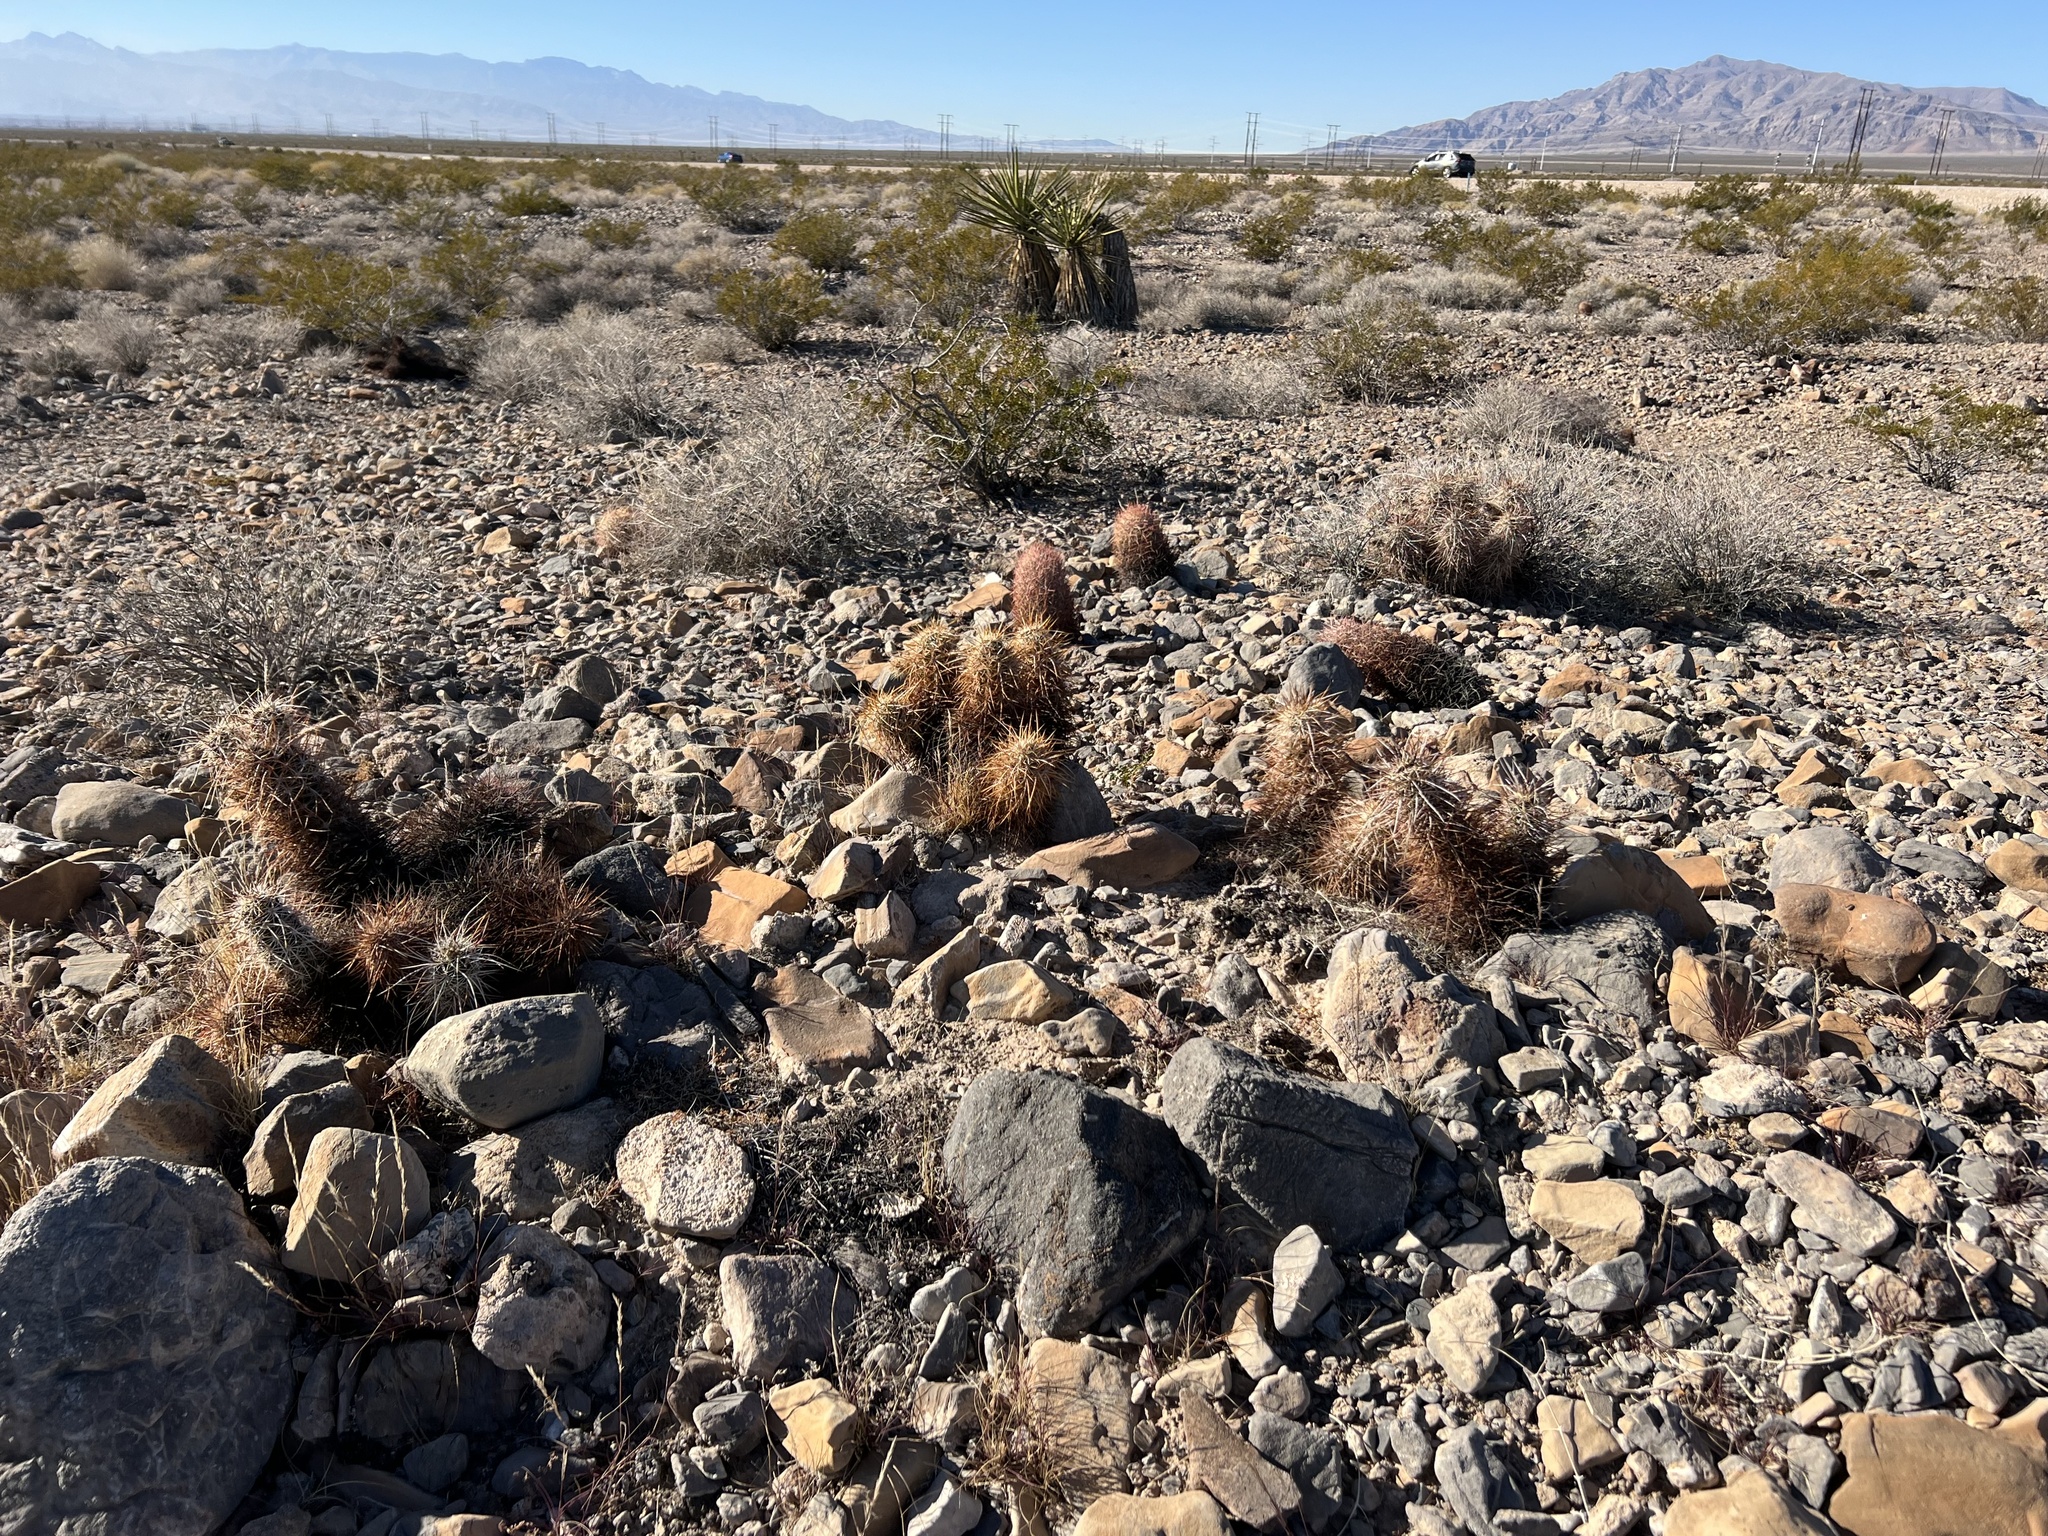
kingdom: Plantae
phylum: Tracheophyta
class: Magnoliopsida
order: Caryophyllales
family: Cactaceae
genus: Echinocereus
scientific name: Echinocereus engelmannii
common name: Engelmann's hedgehog cactus
